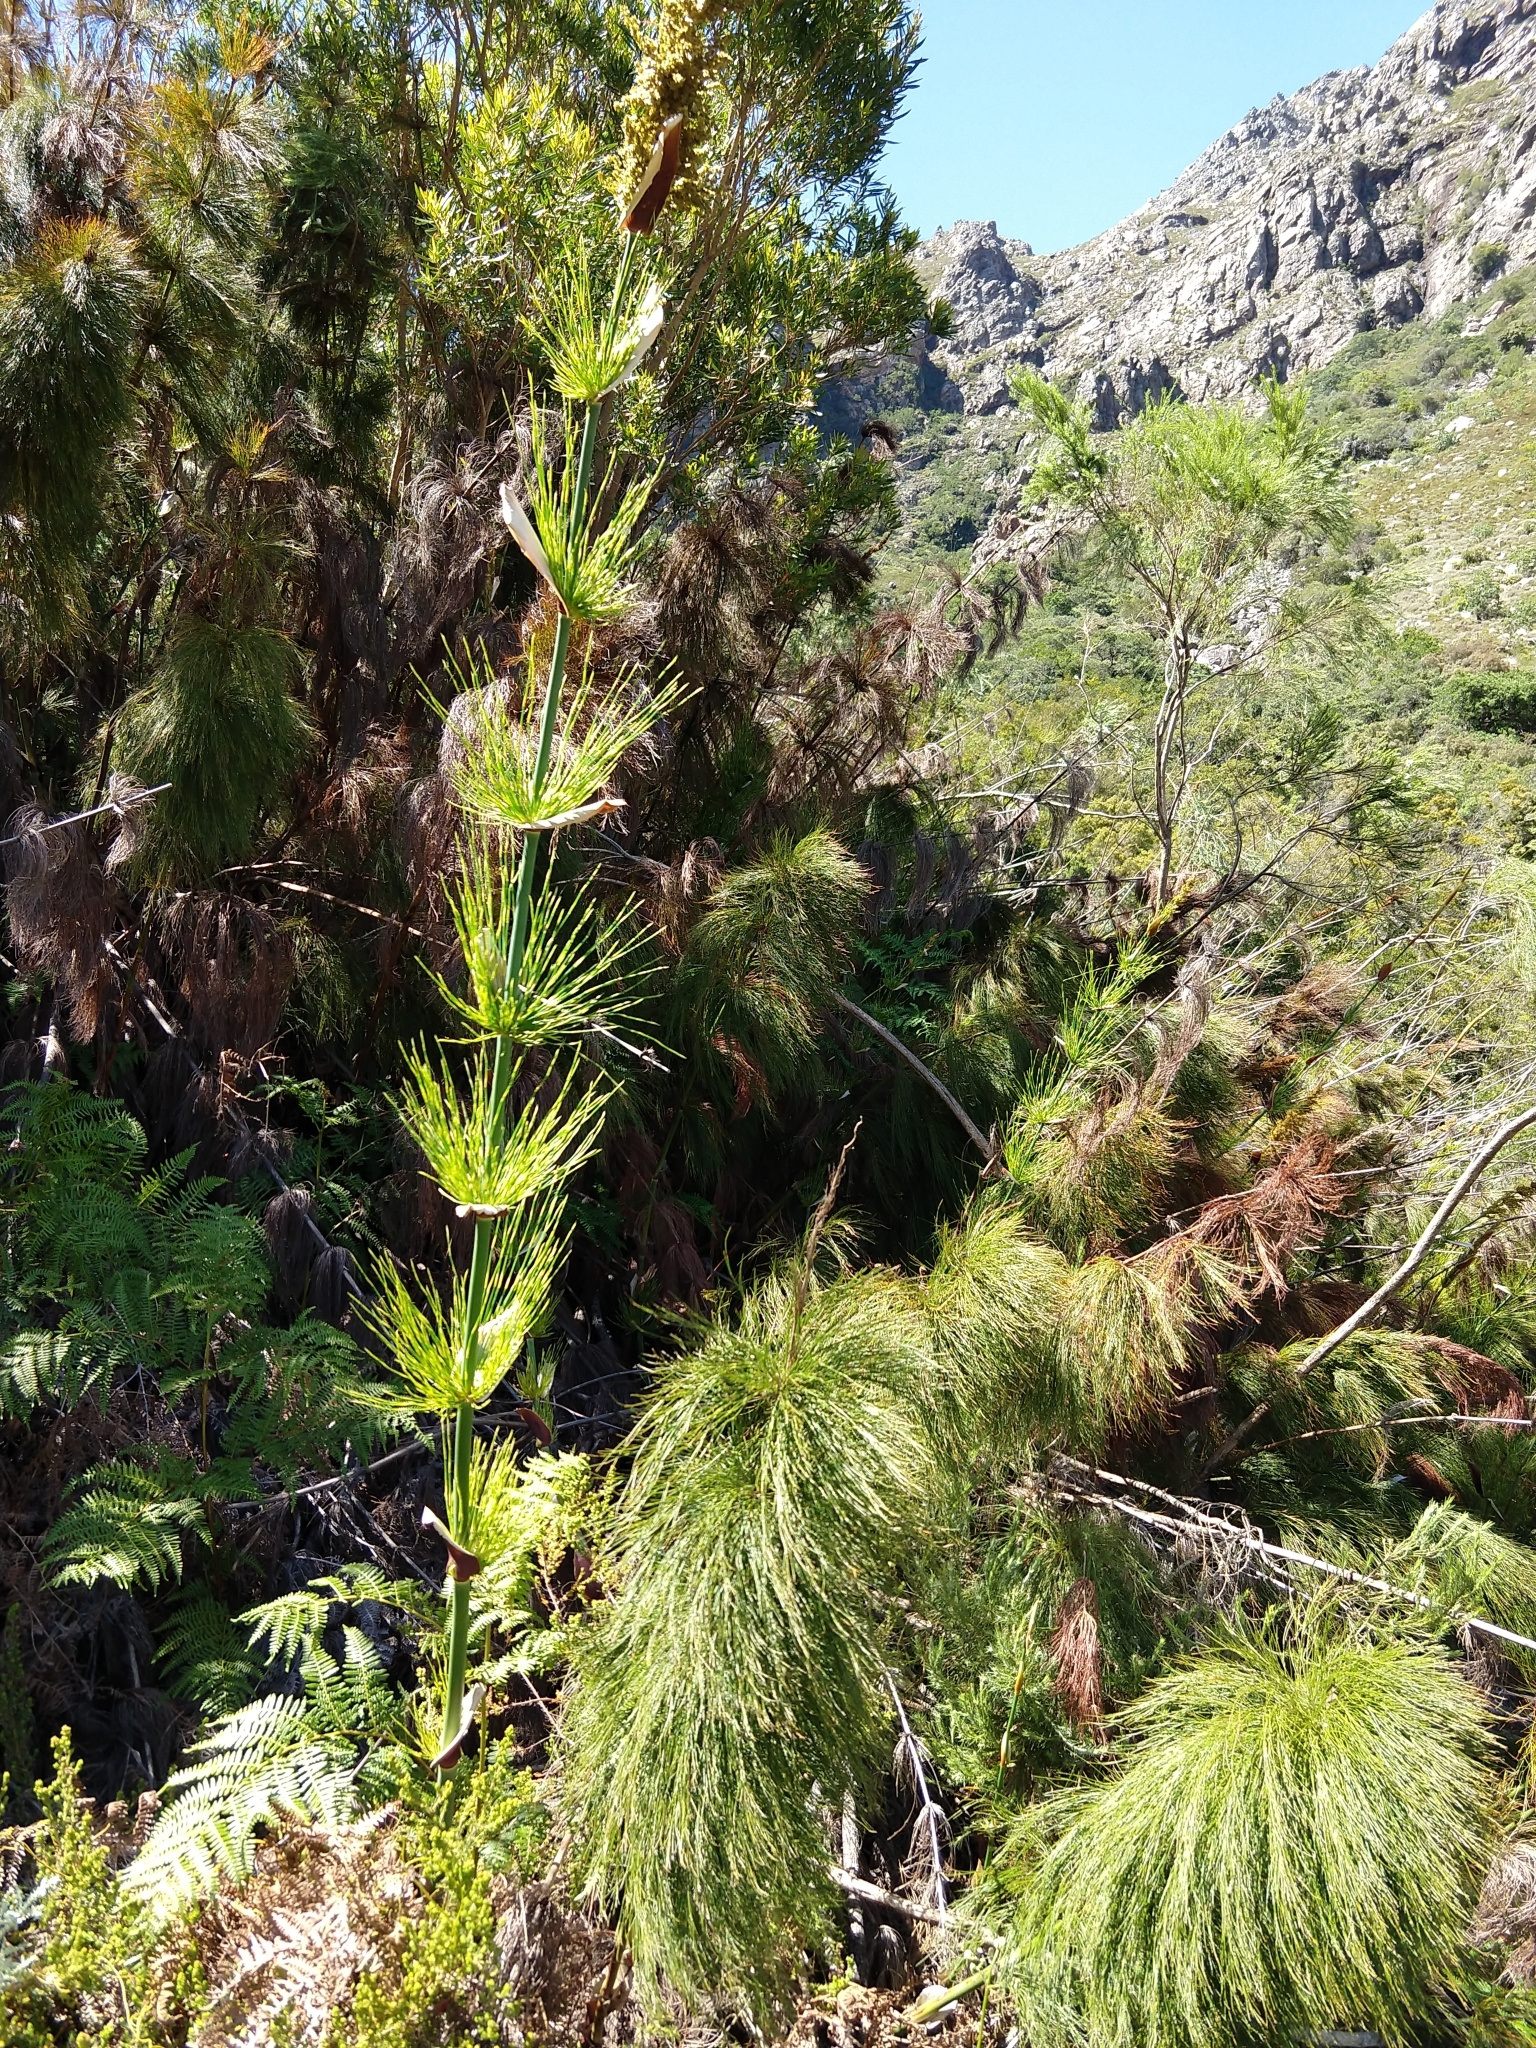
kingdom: Plantae
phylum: Tracheophyta
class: Liliopsida
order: Poales
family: Restionaceae
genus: Elegia
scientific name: Elegia capensis
